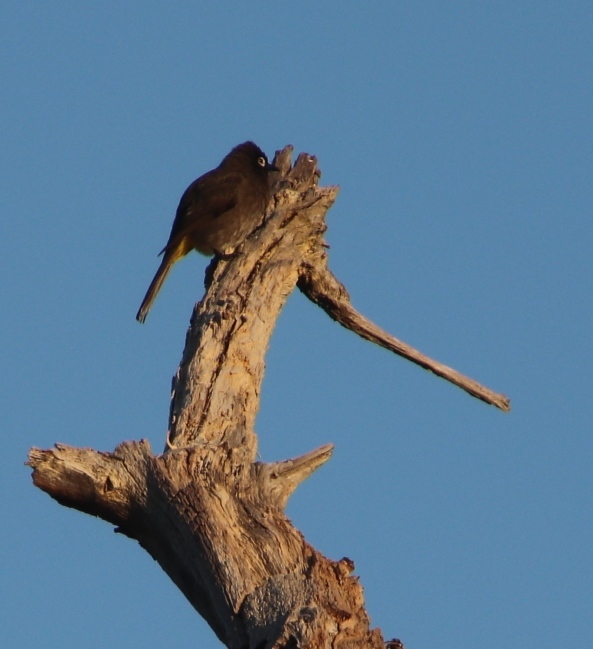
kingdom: Animalia
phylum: Chordata
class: Aves
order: Passeriformes
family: Pycnonotidae
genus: Pycnonotus
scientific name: Pycnonotus capensis
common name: Cape bulbul
